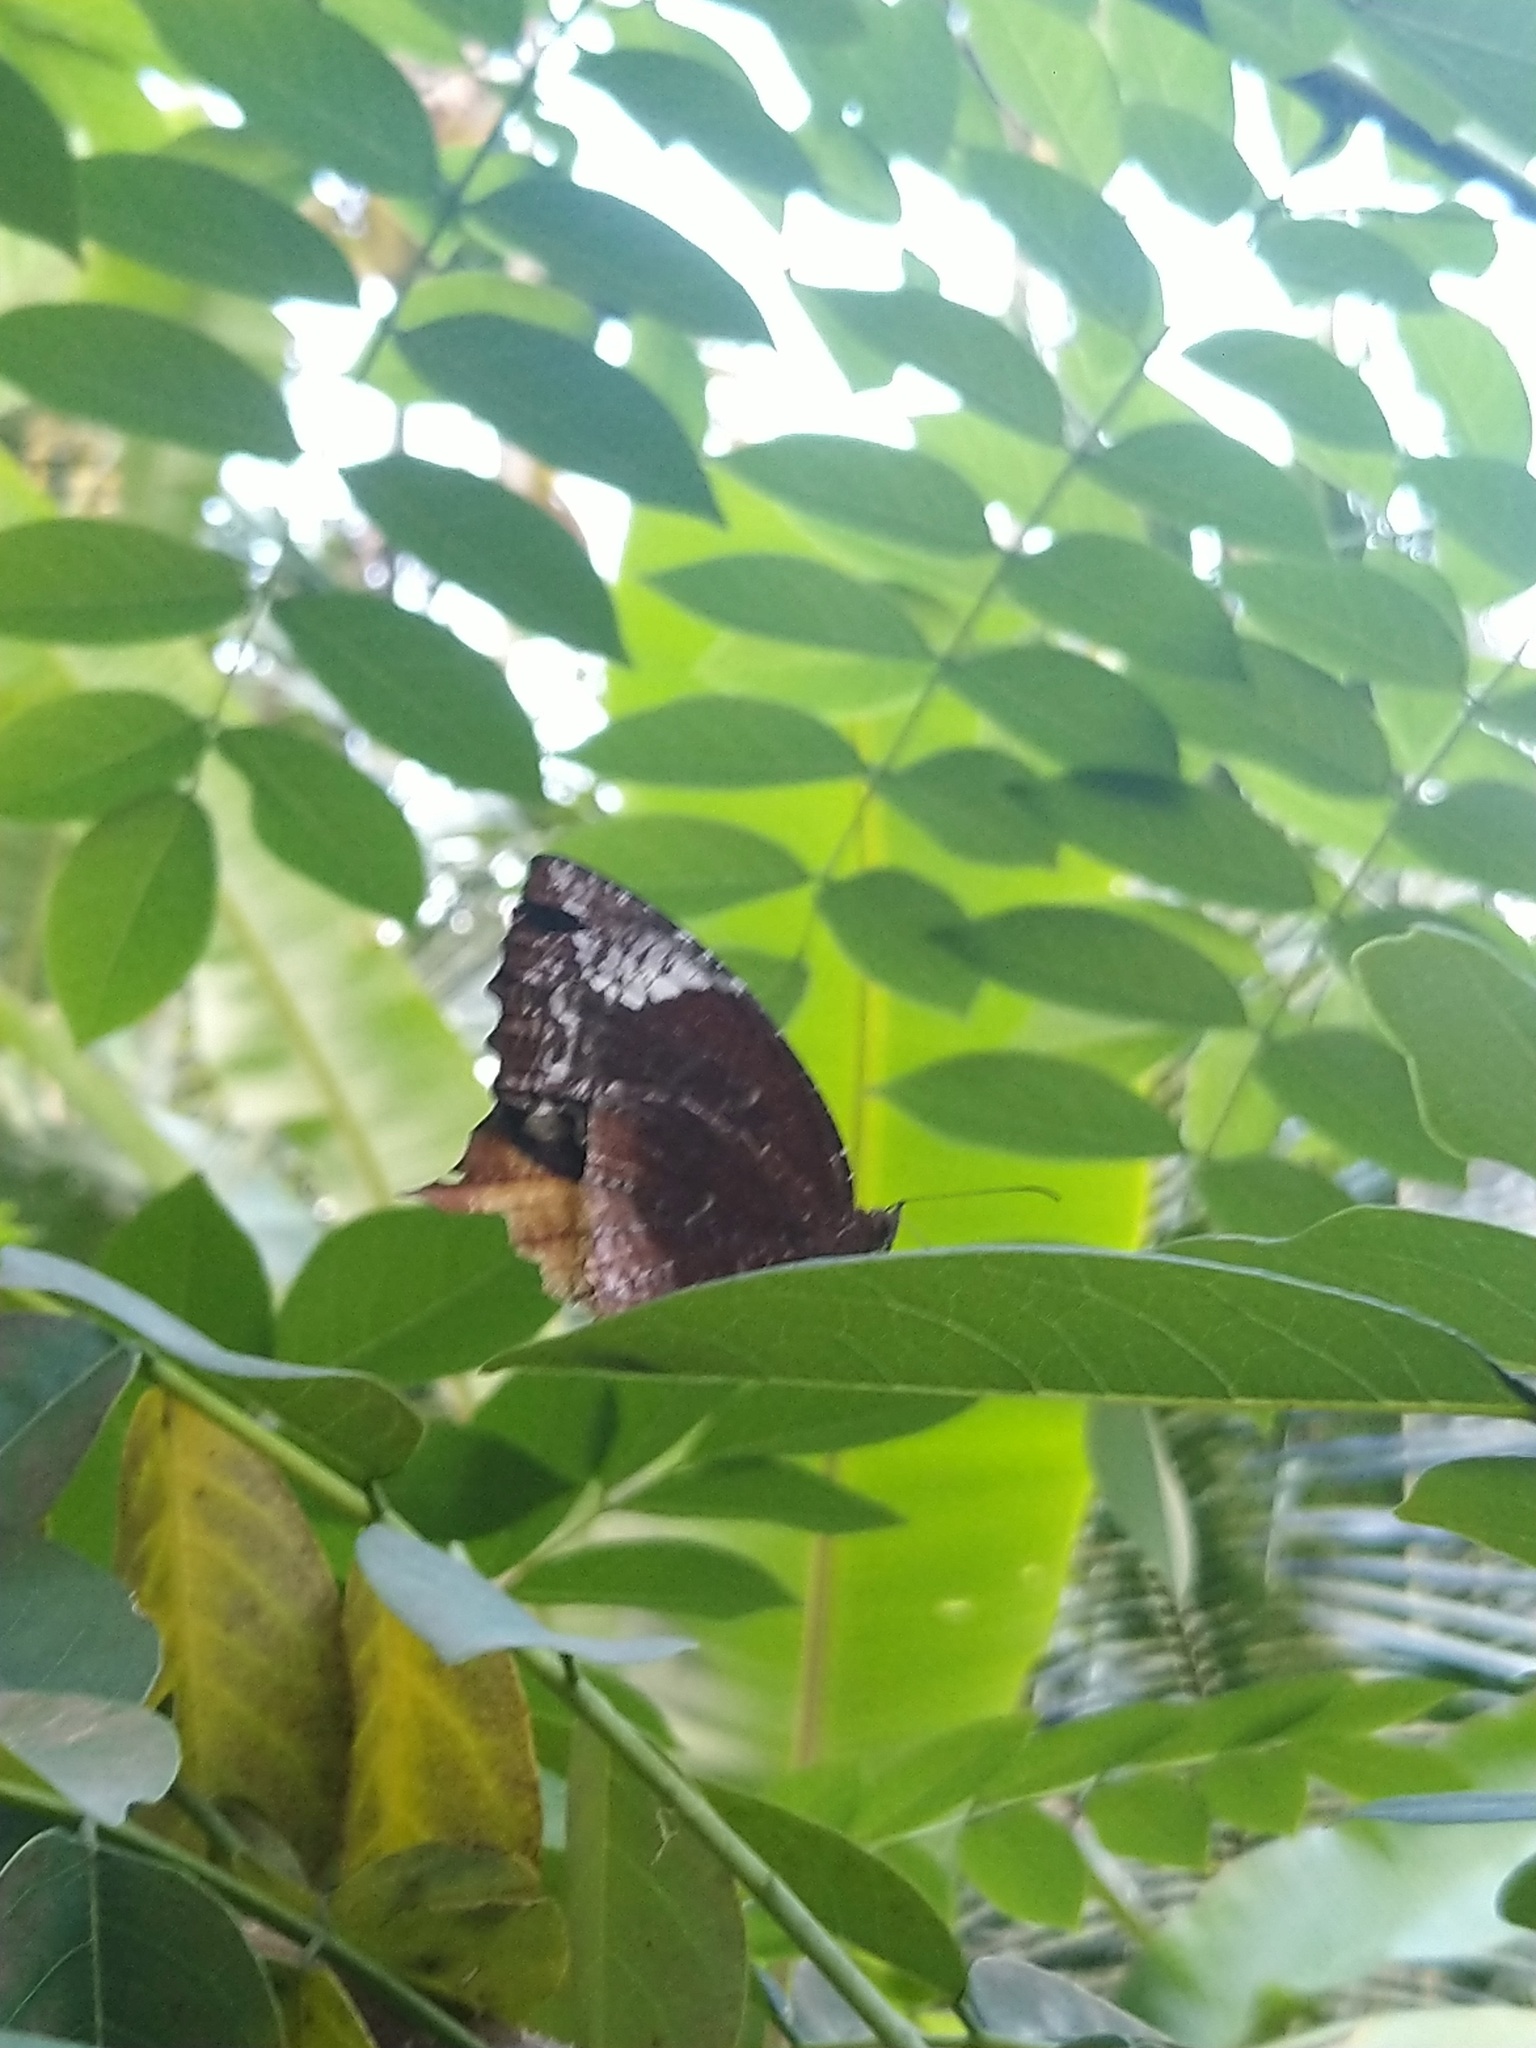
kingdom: Animalia
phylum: Arthropoda
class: Insecta
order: Lepidoptera
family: Nymphalidae
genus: Elymnias
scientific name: Elymnias caudata
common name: Tailed palmfly
